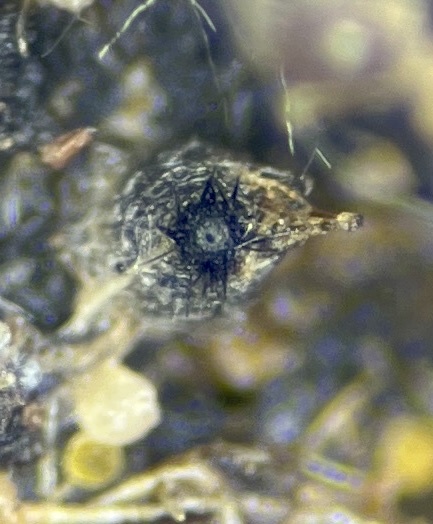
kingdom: Fungi
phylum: Ascomycota
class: Sordariomycetes
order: Sordariales
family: Podosporaceae
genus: Podospora
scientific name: Podospora collapsa
